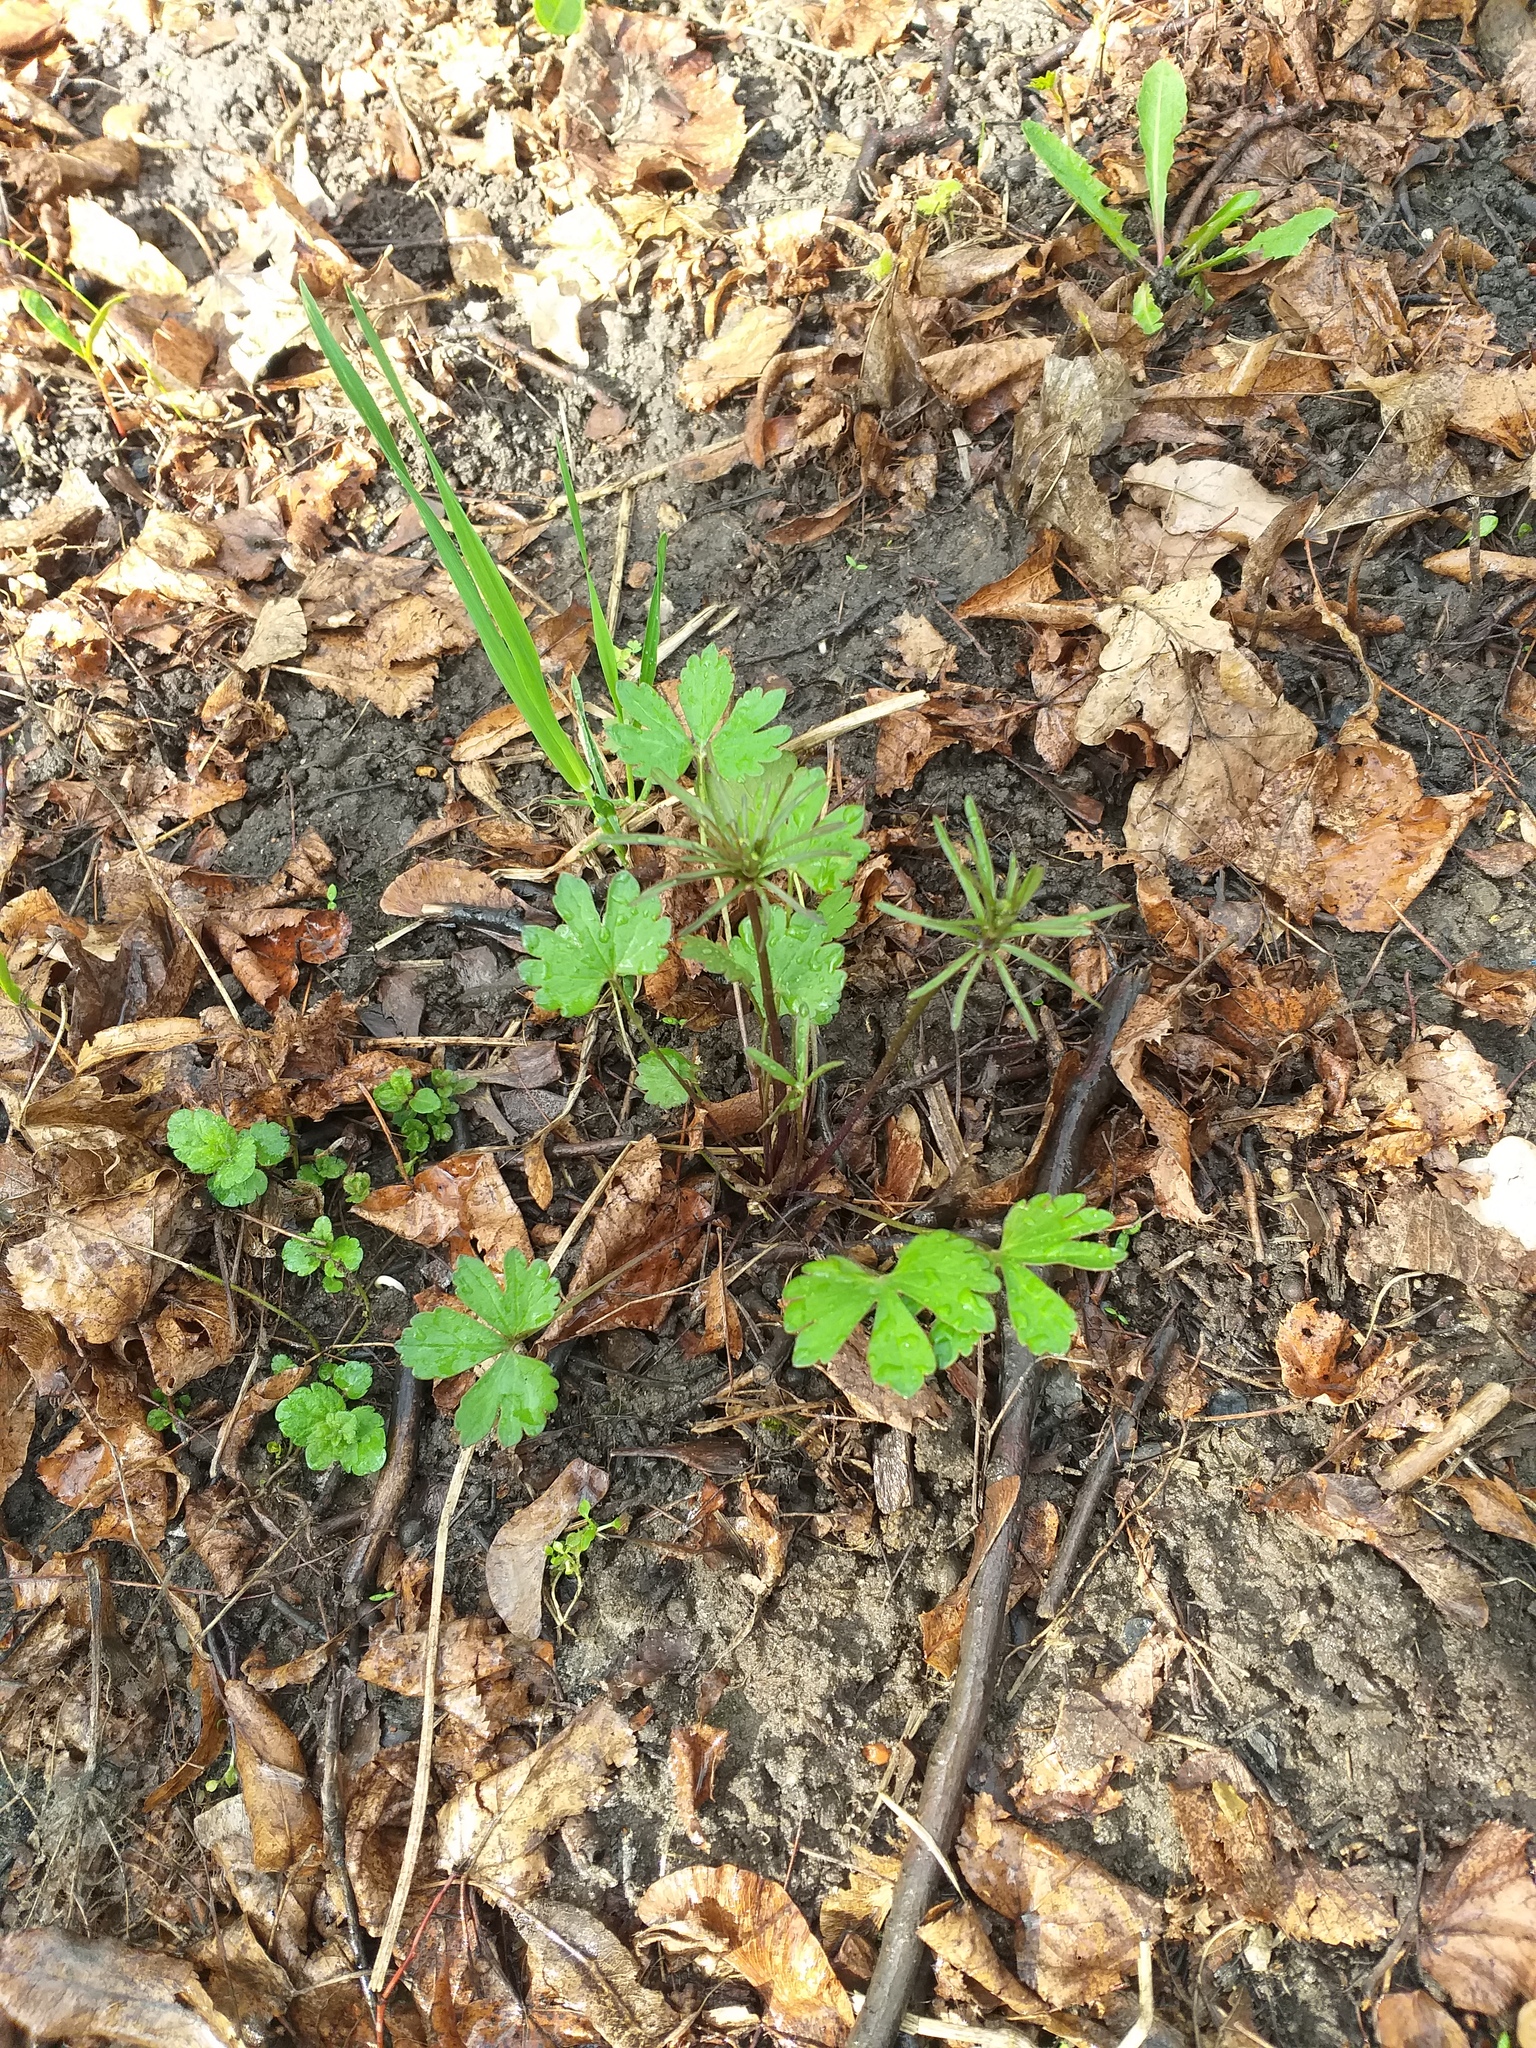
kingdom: Plantae
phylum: Tracheophyta
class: Magnoliopsida
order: Ranunculales
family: Ranunculaceae
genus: Ranunculus
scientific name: Ranunculus auricomus
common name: Goldilocks buttercup
